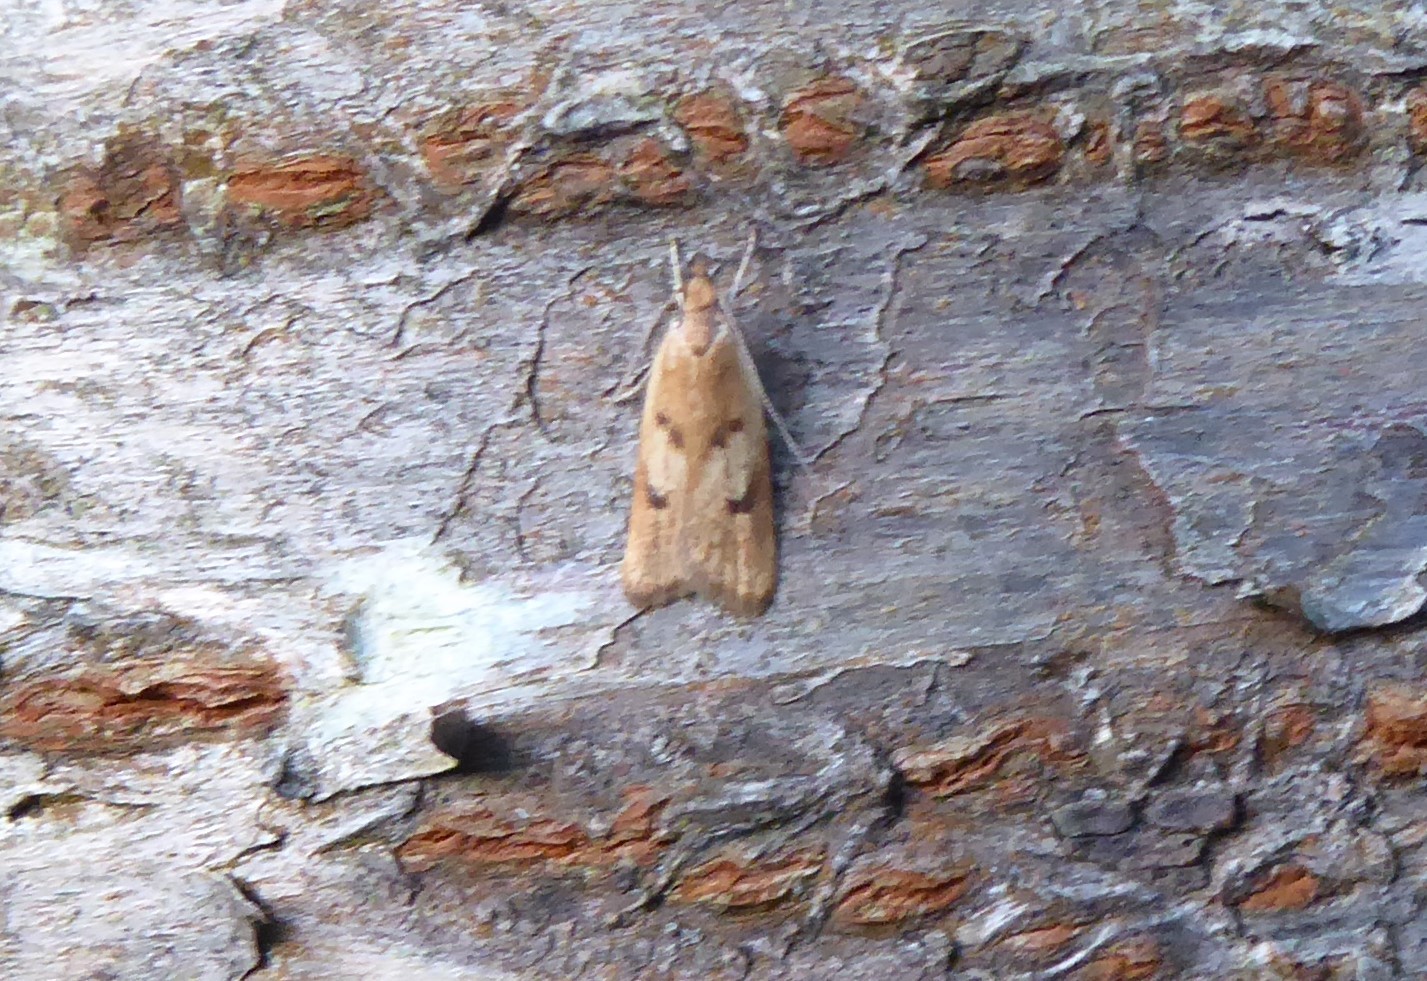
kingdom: Animalia
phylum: Arthropoda
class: Insecta
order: Lepidoptera
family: Oecophoridae
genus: Gymnobathra
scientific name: Gymnobathra sarcoxantha
